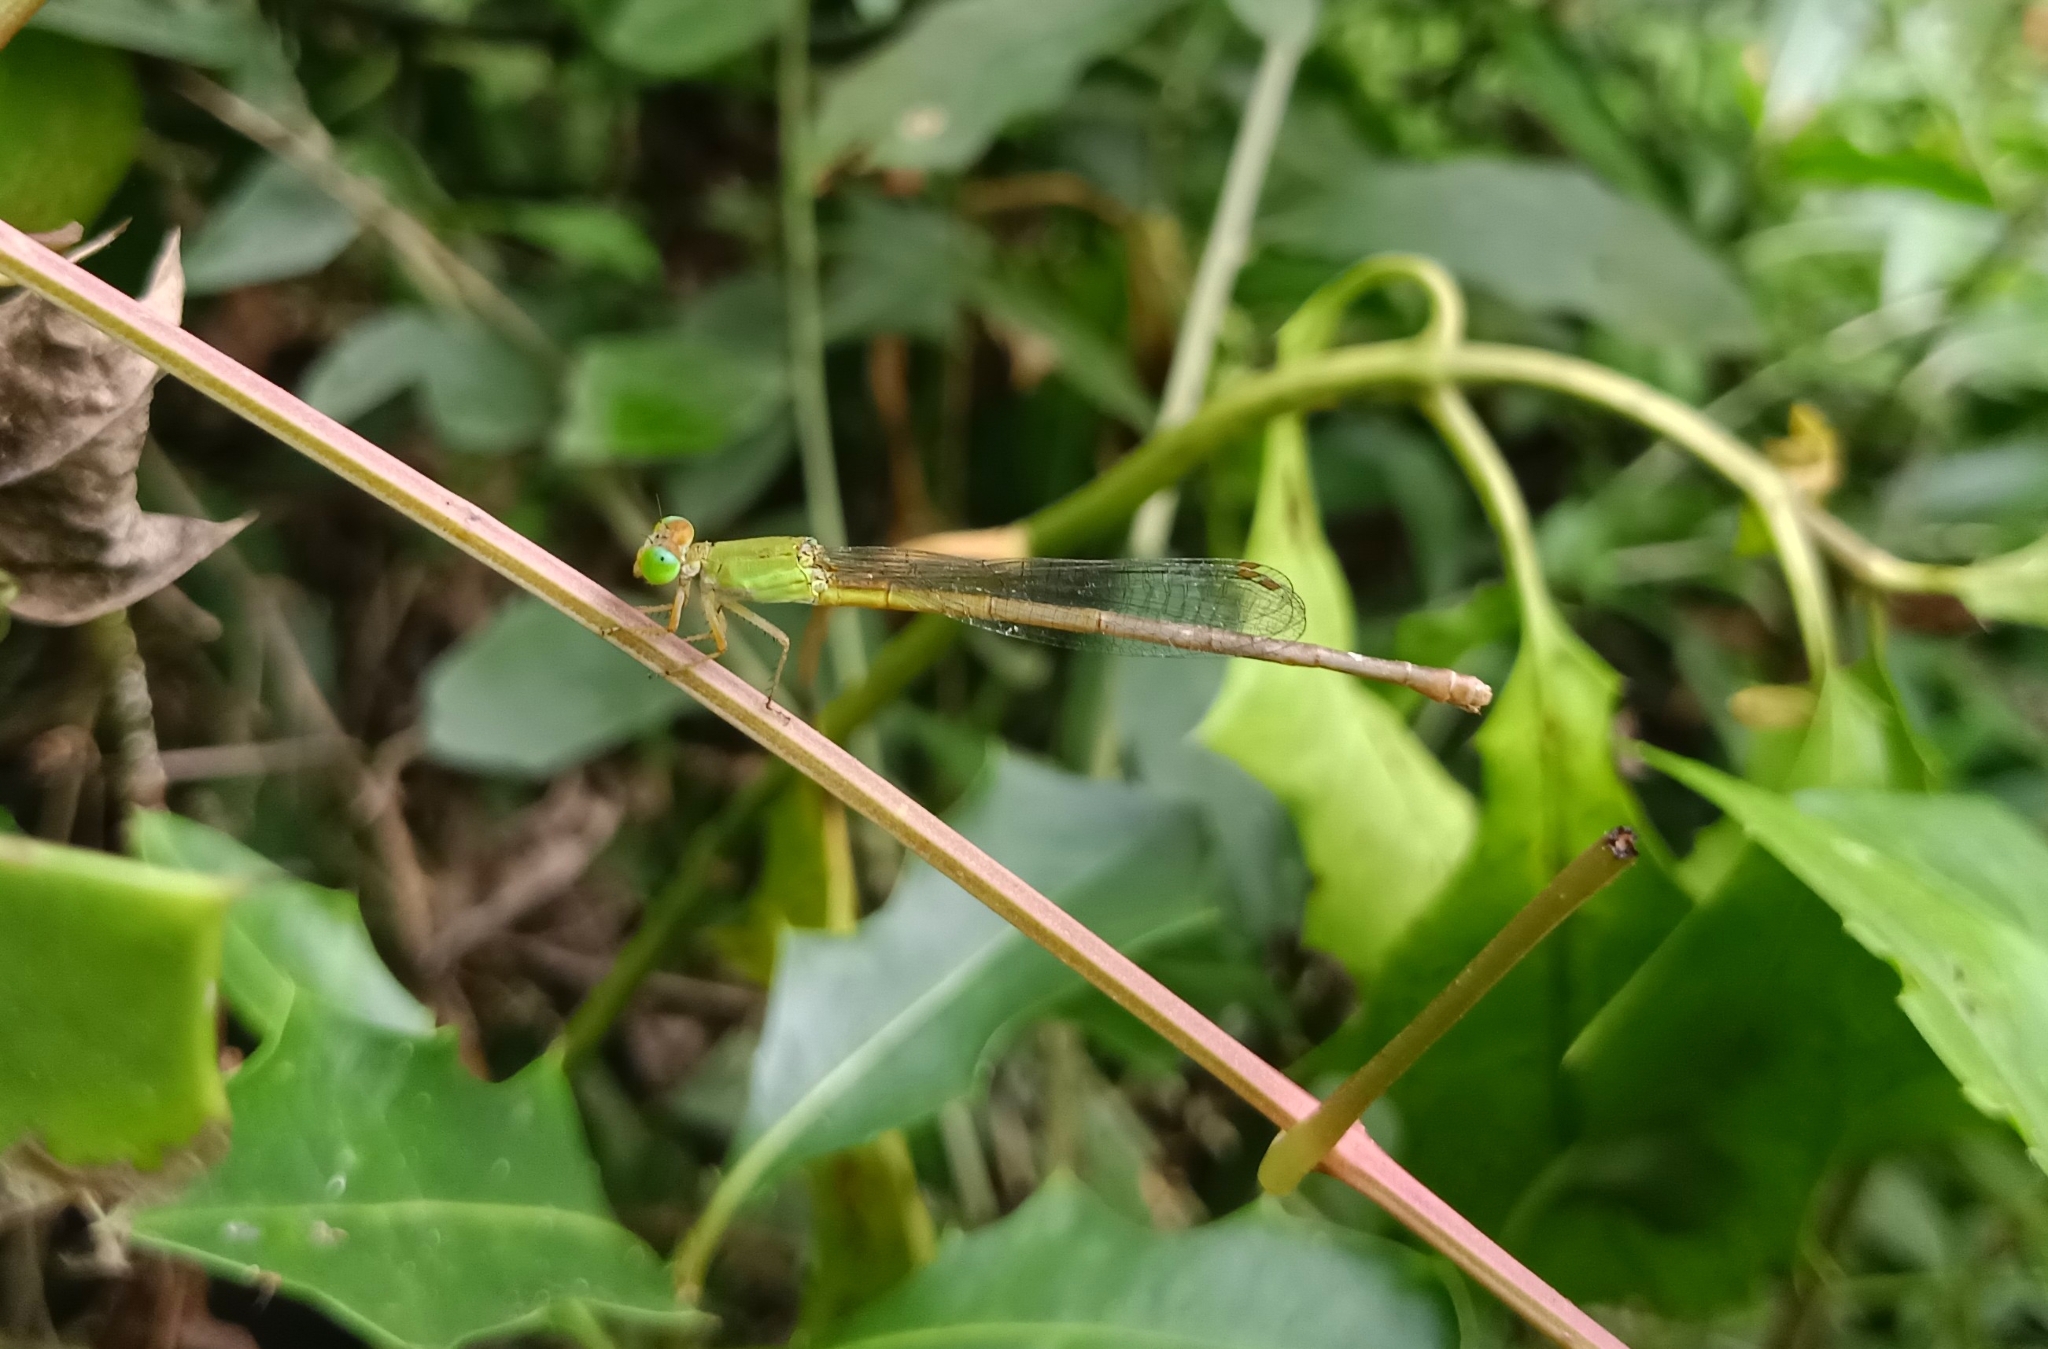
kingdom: Animalia
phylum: Arthropoda
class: Insecta
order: Odonata
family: Coenagrionidae
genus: Ceriagrion
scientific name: Ceriagrion coromandelianum
